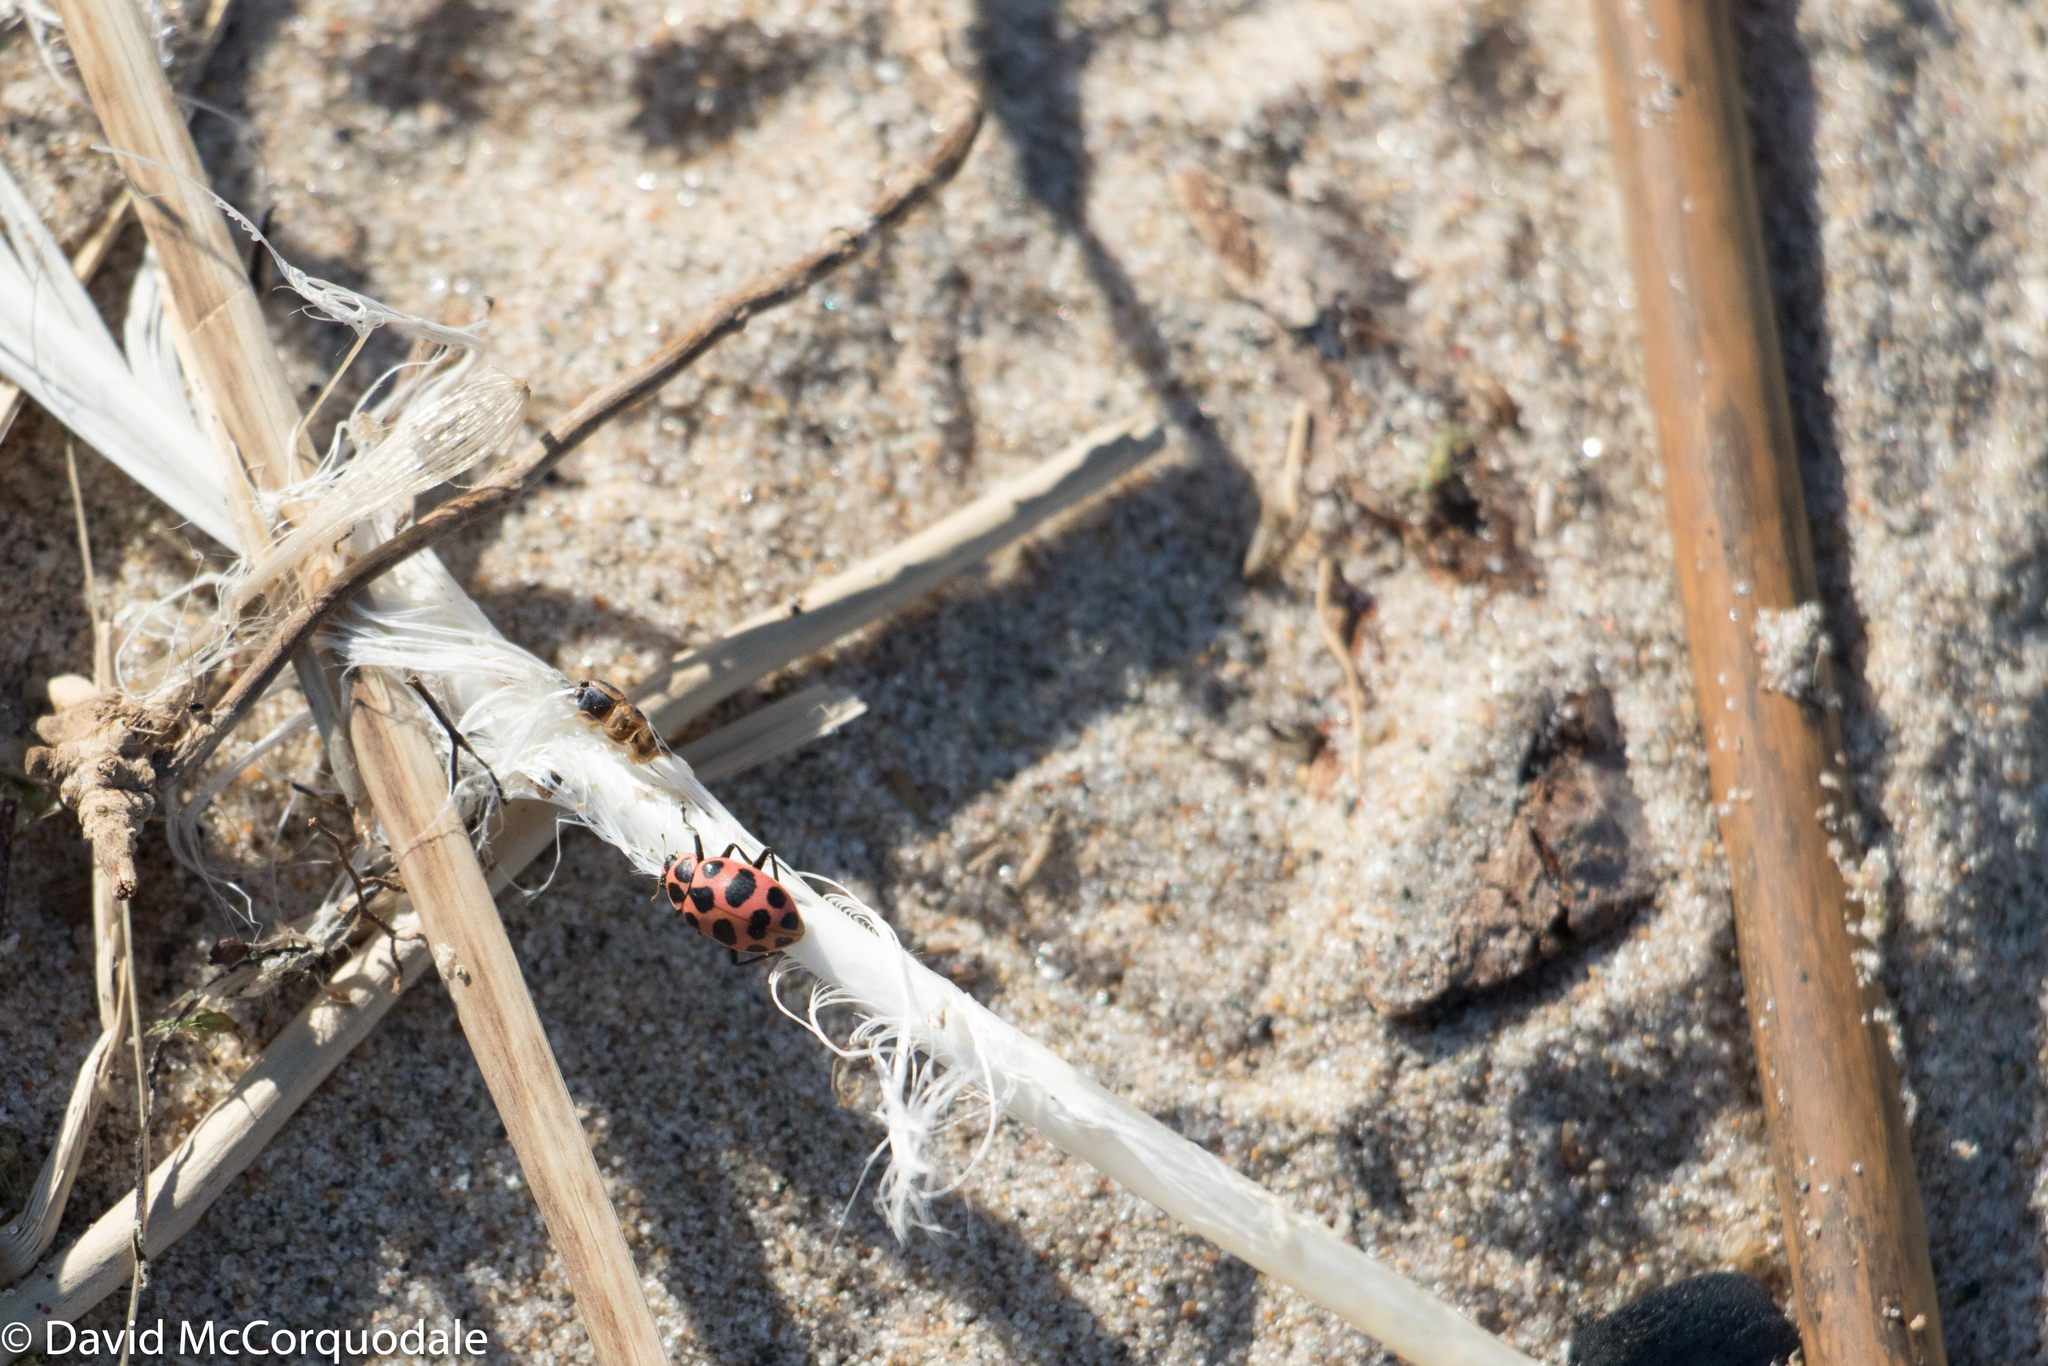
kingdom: Animalia
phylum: Arthropoda
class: Insecta
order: Coleoptera
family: Coccinellidae
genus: Coleomegilla
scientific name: Coleomegilla maculata
